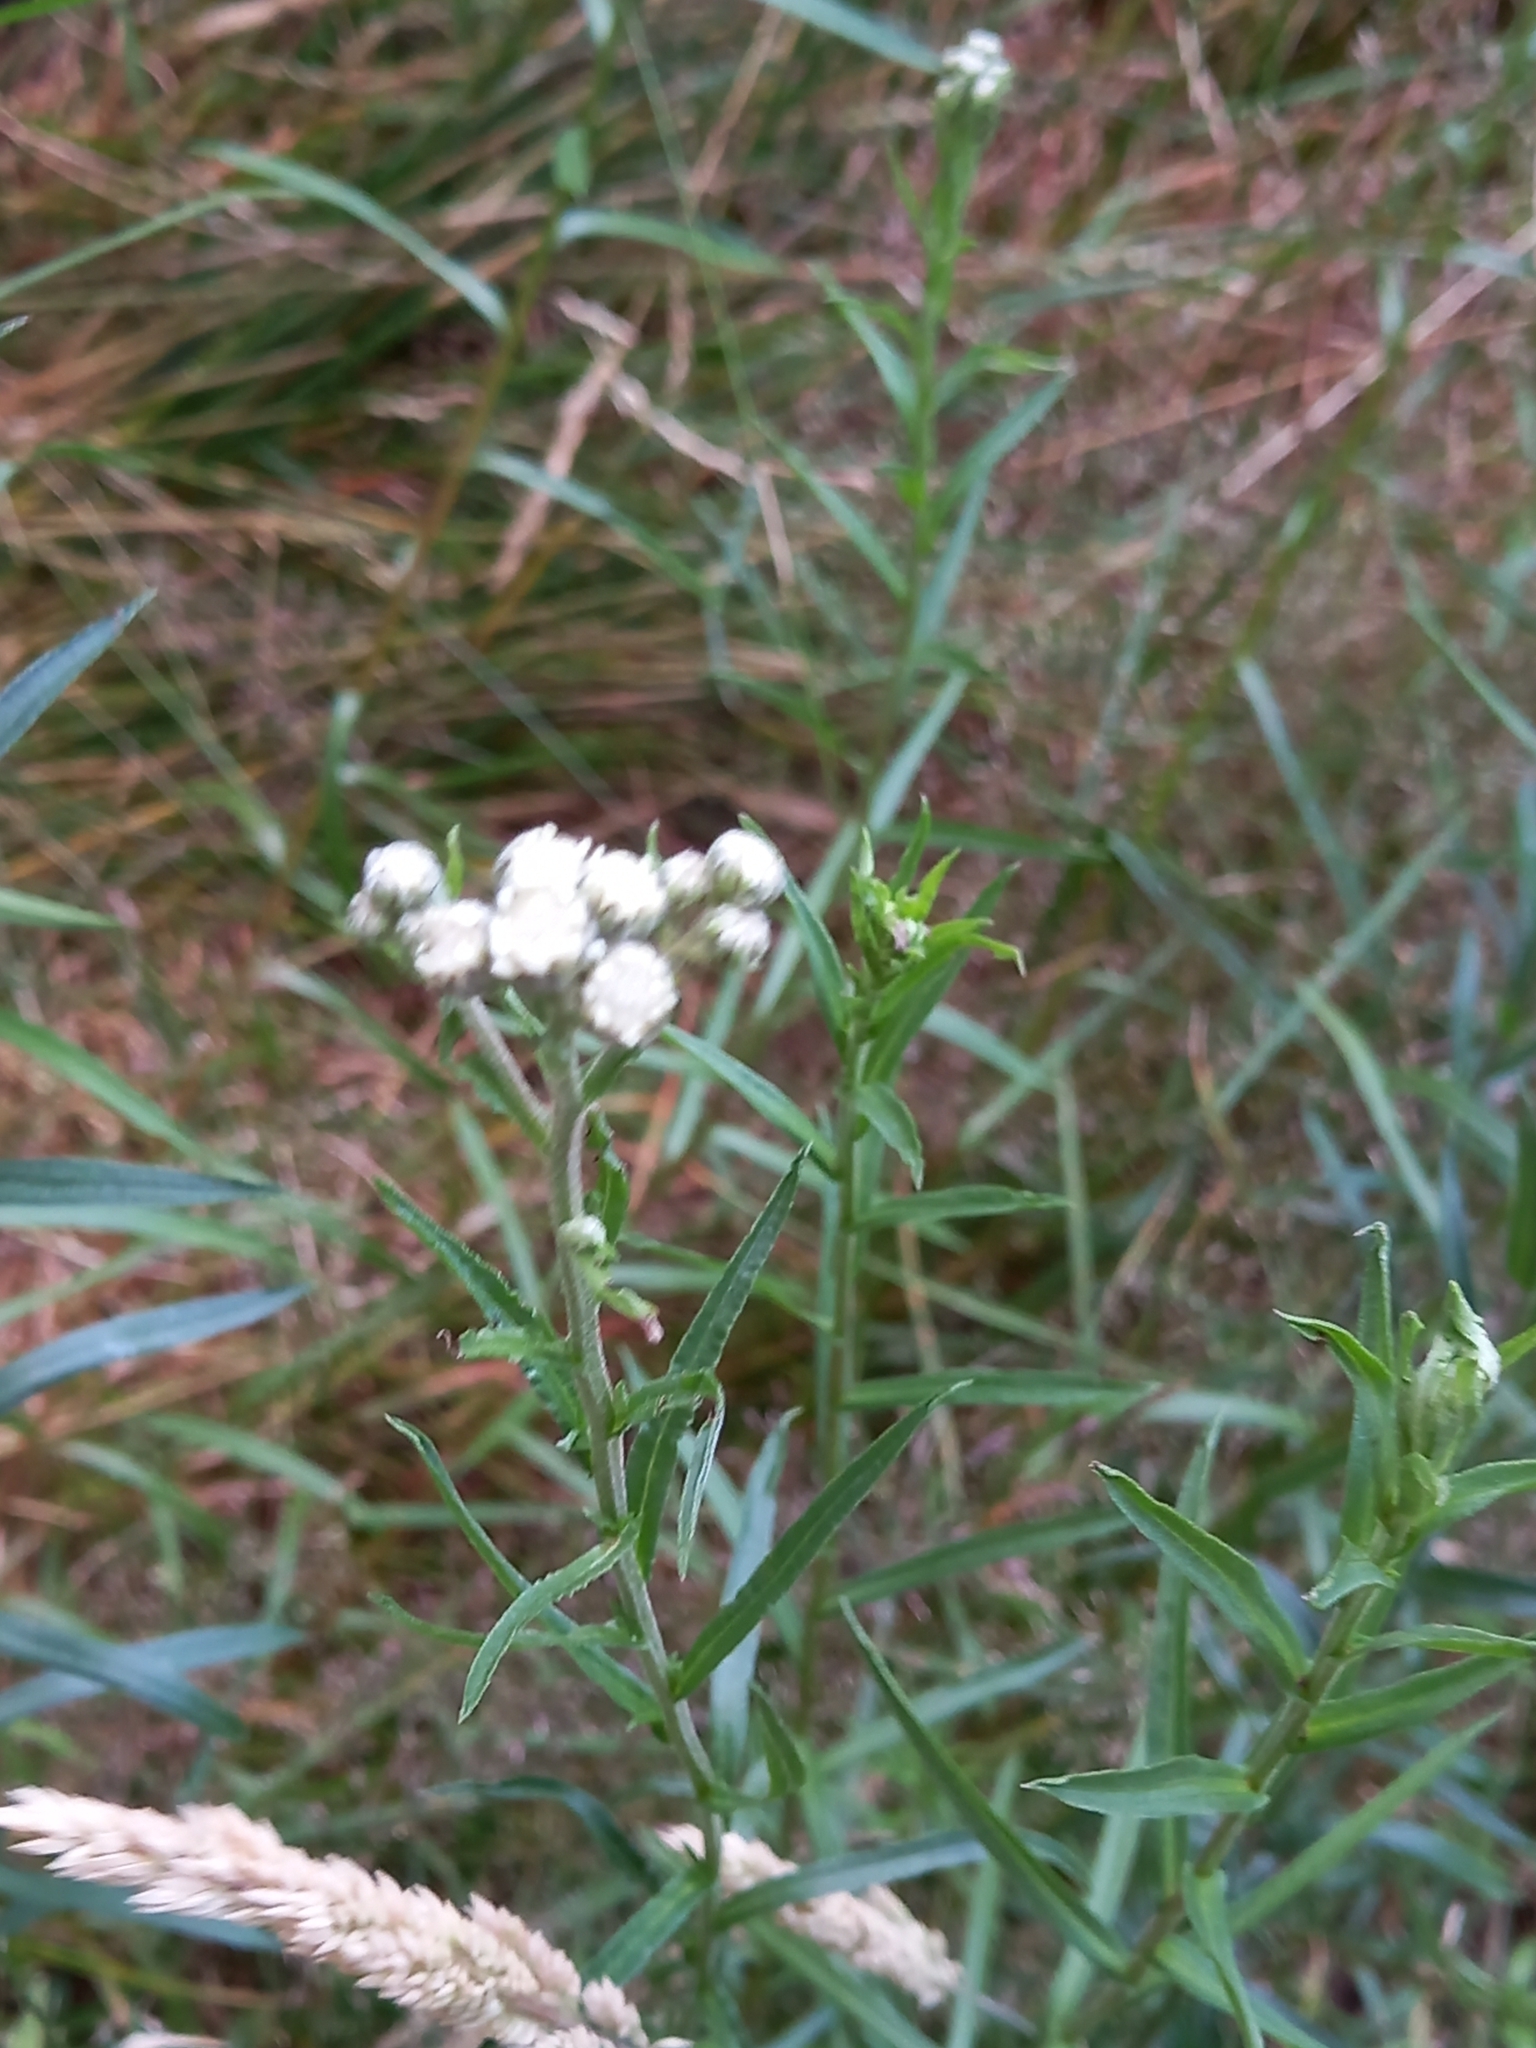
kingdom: Plantae
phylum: Tracheophyta
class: Magnoliopsida
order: Asterales
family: Asteraceae
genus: Achillea
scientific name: Achillea ptarmica
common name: Sneezeweed
